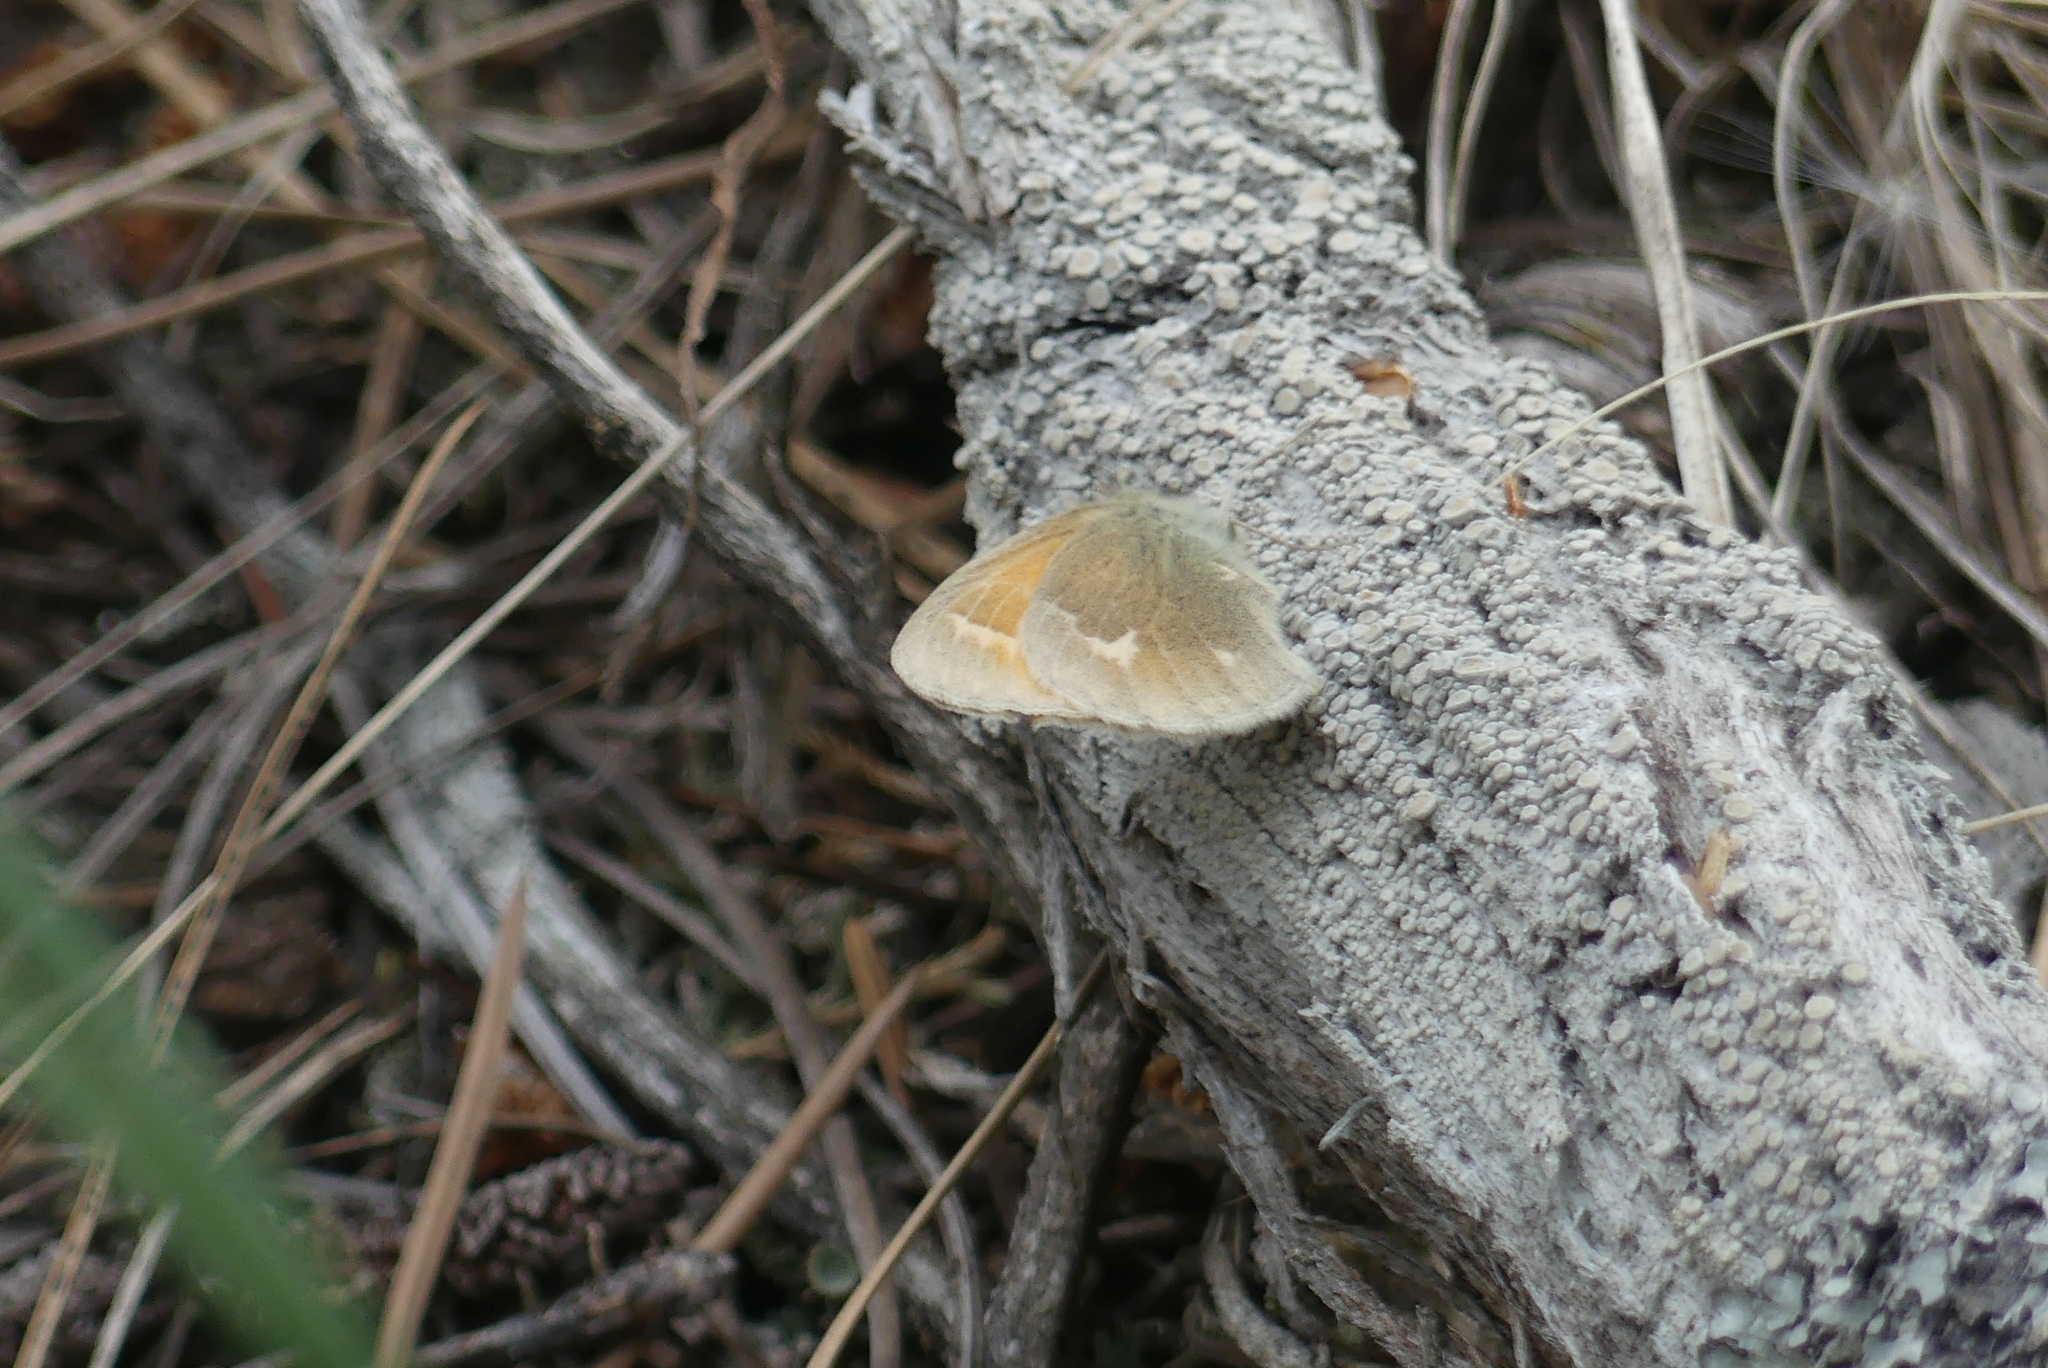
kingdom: Animalia
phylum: Arthropoda
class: Insecta
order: Lepidoptera
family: Nymphalidae
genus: Coenonympha
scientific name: Coenonympha california
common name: Common ringlet
